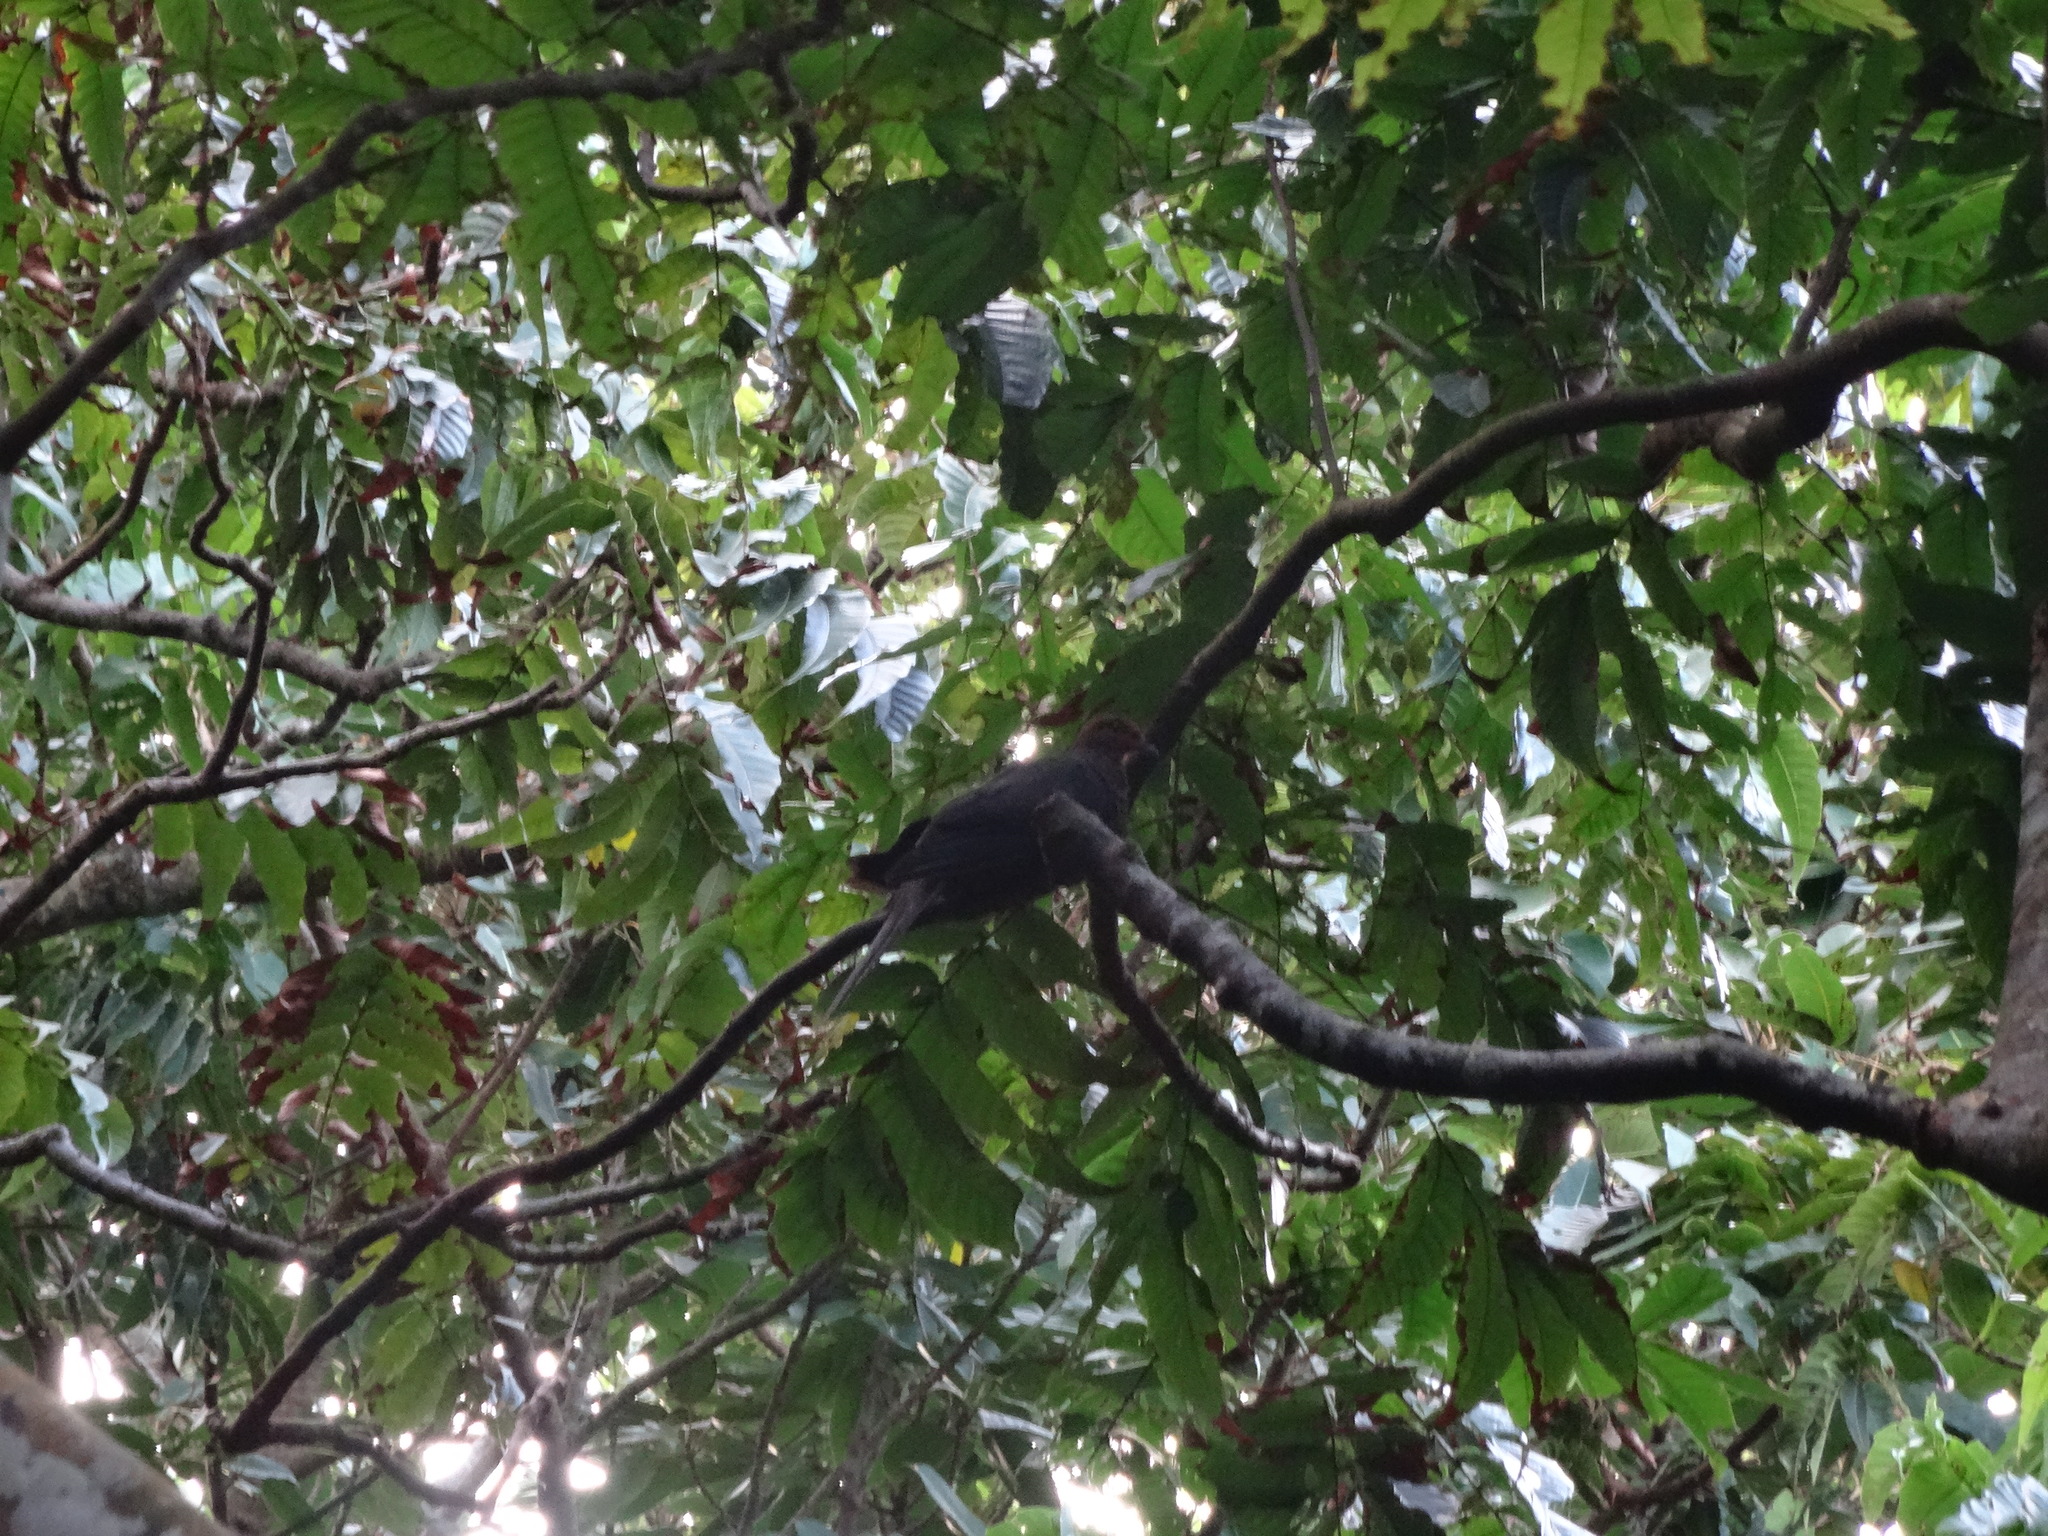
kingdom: Animalia
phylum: Chordata
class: Aves
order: Columbiformes
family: Columbidae
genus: Macropygia
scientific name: Macropygia tenuirostris
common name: Philippine cuckoo-dove
